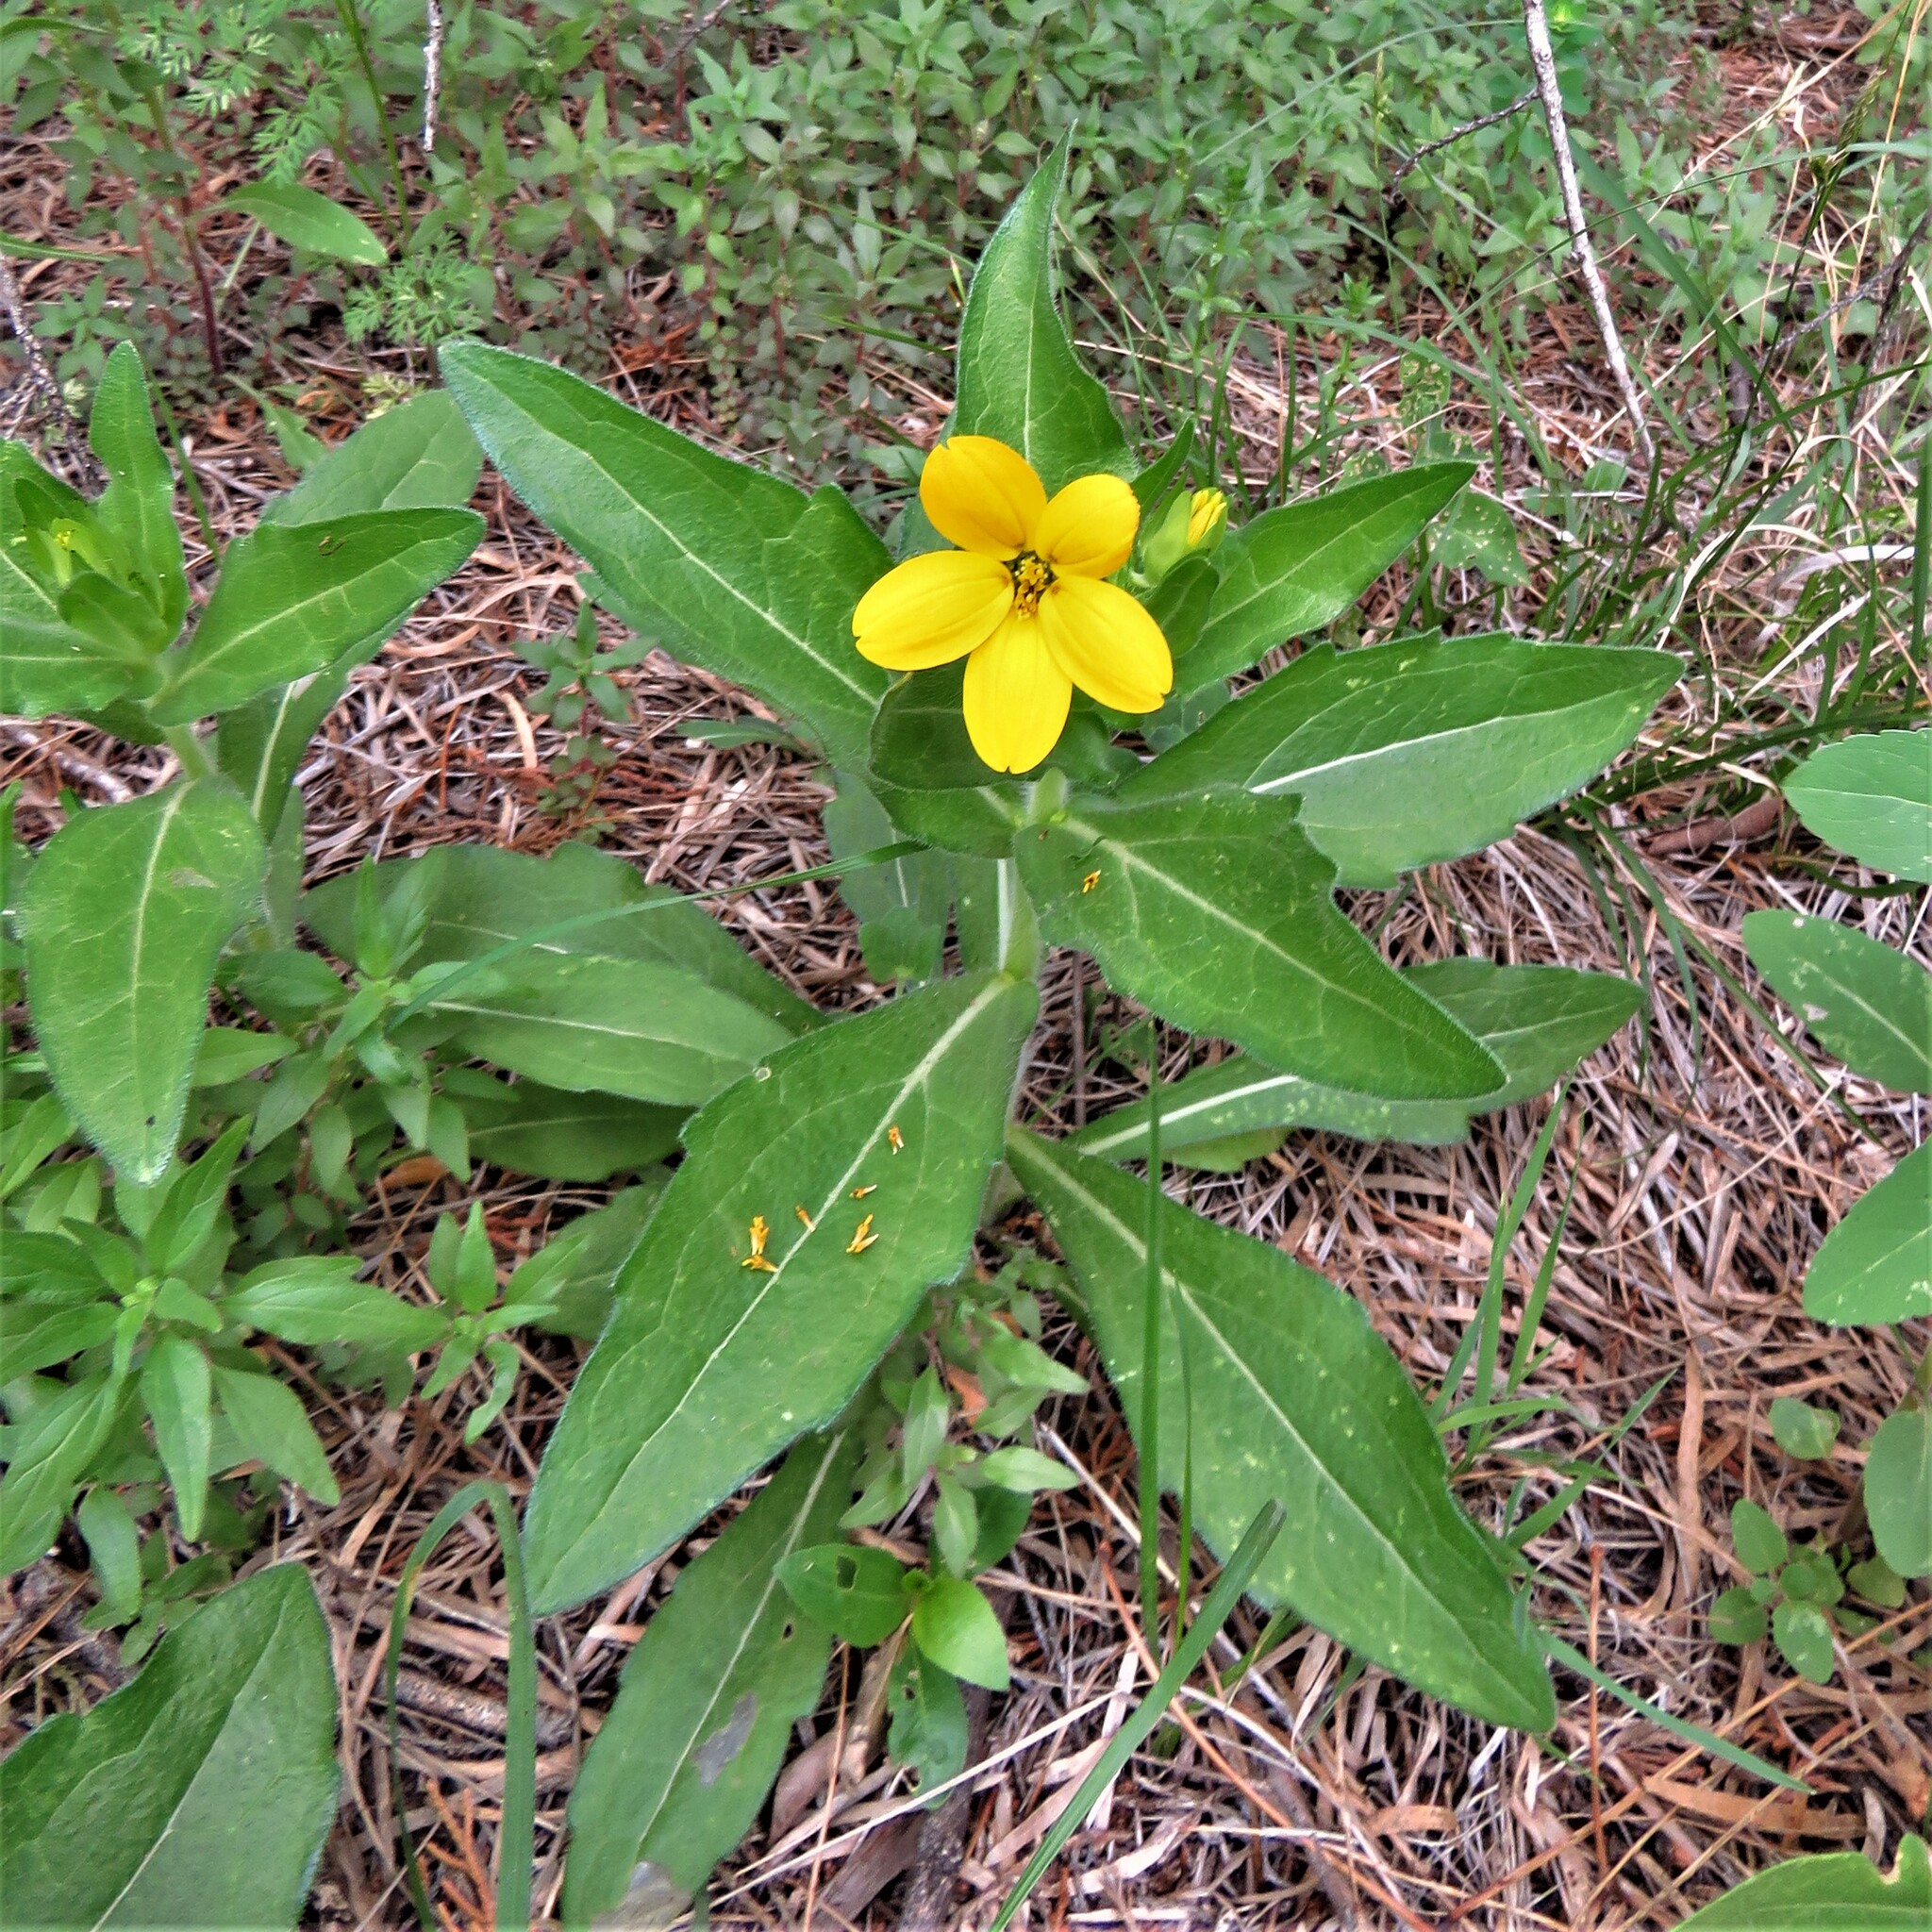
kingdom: Plantae
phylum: Tracheophyta
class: Magnoliopsida
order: Asterales
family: Asteraceae
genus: Lindheimera
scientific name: Lindheimera texana
